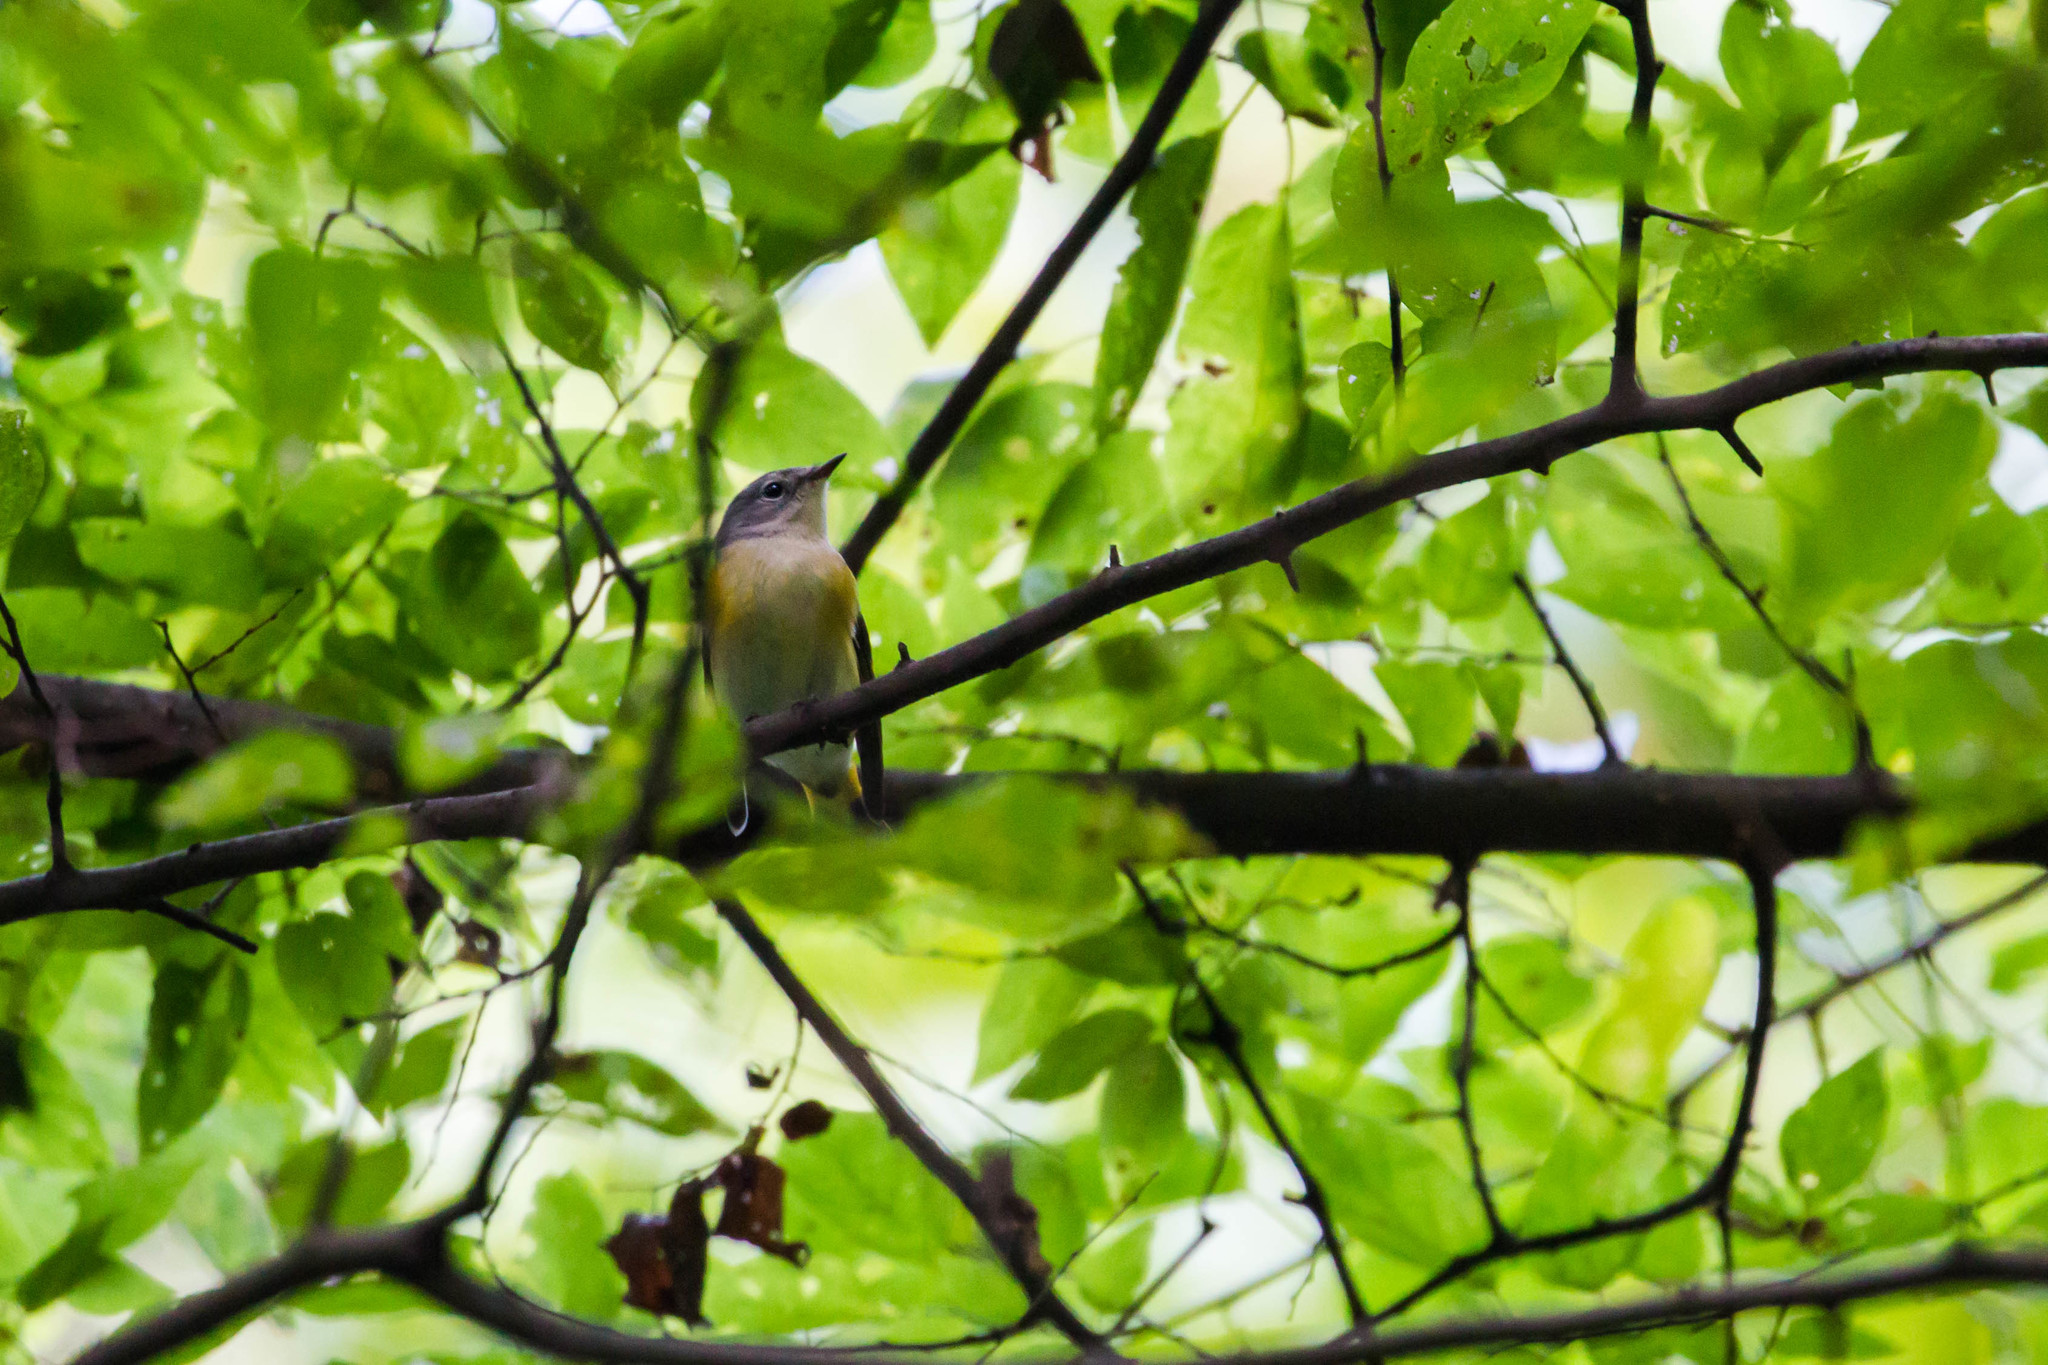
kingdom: Animalia
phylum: Chordata
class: Aves
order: Passeriformes
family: Parulidae
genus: Setophaga
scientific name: Setophaga ruticilla
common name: American redstart
